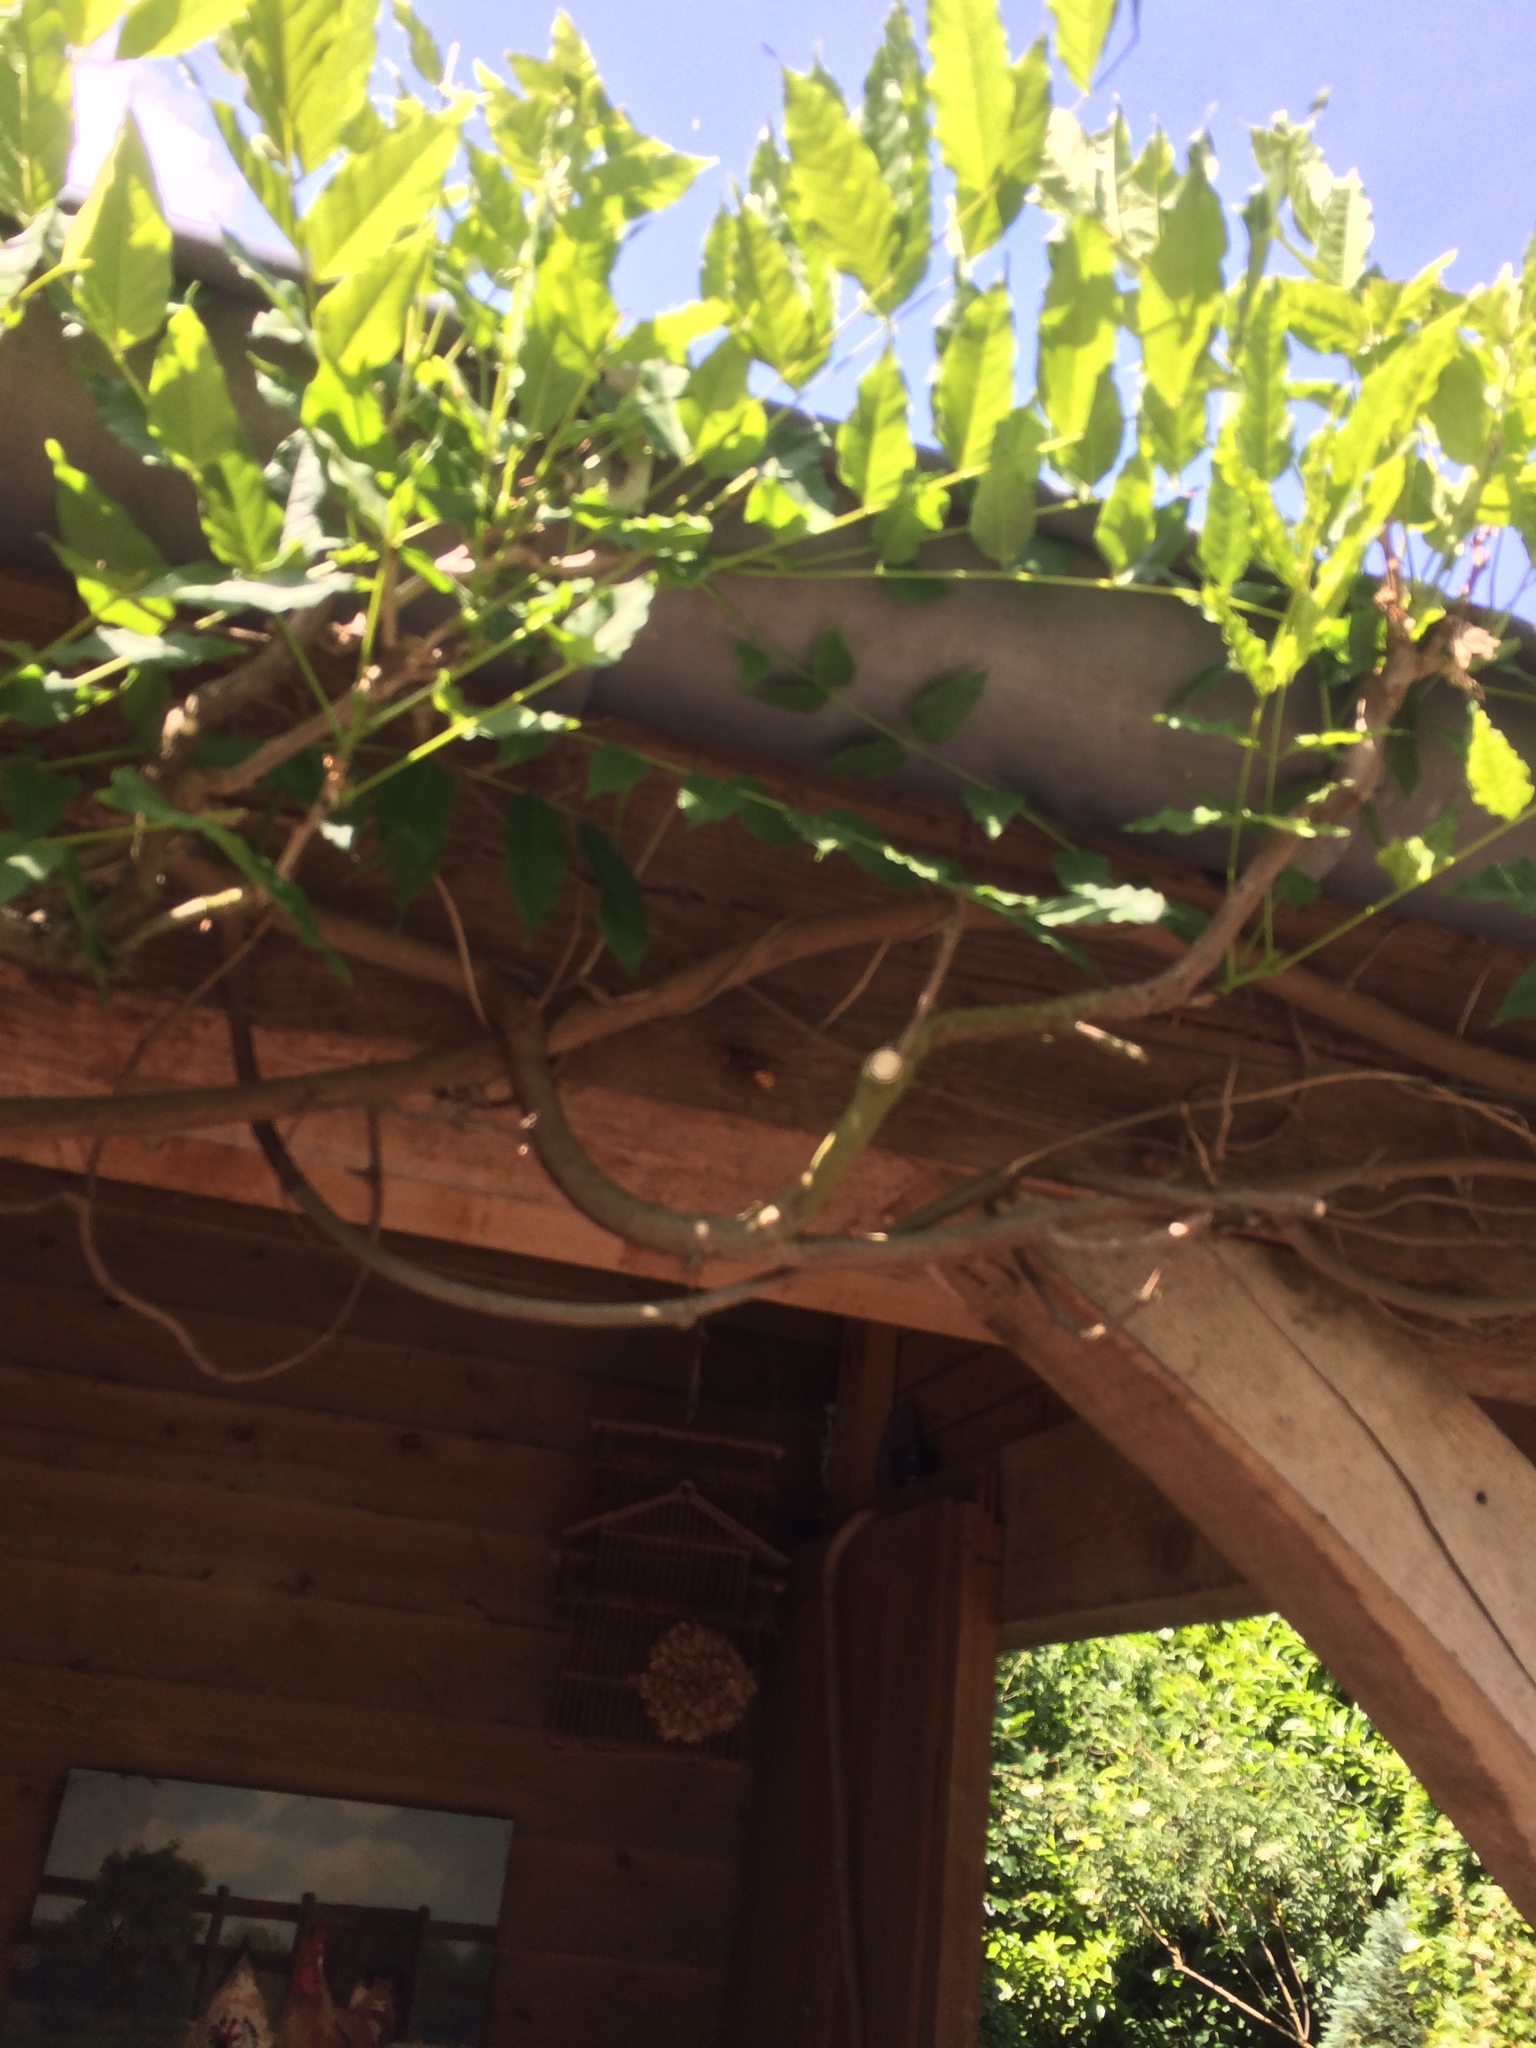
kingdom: Animalia
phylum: Arthropoda
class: Insecta
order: Hymenoptera
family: Vespidae
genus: Vespa
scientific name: Vespa crabro
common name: Hornet
